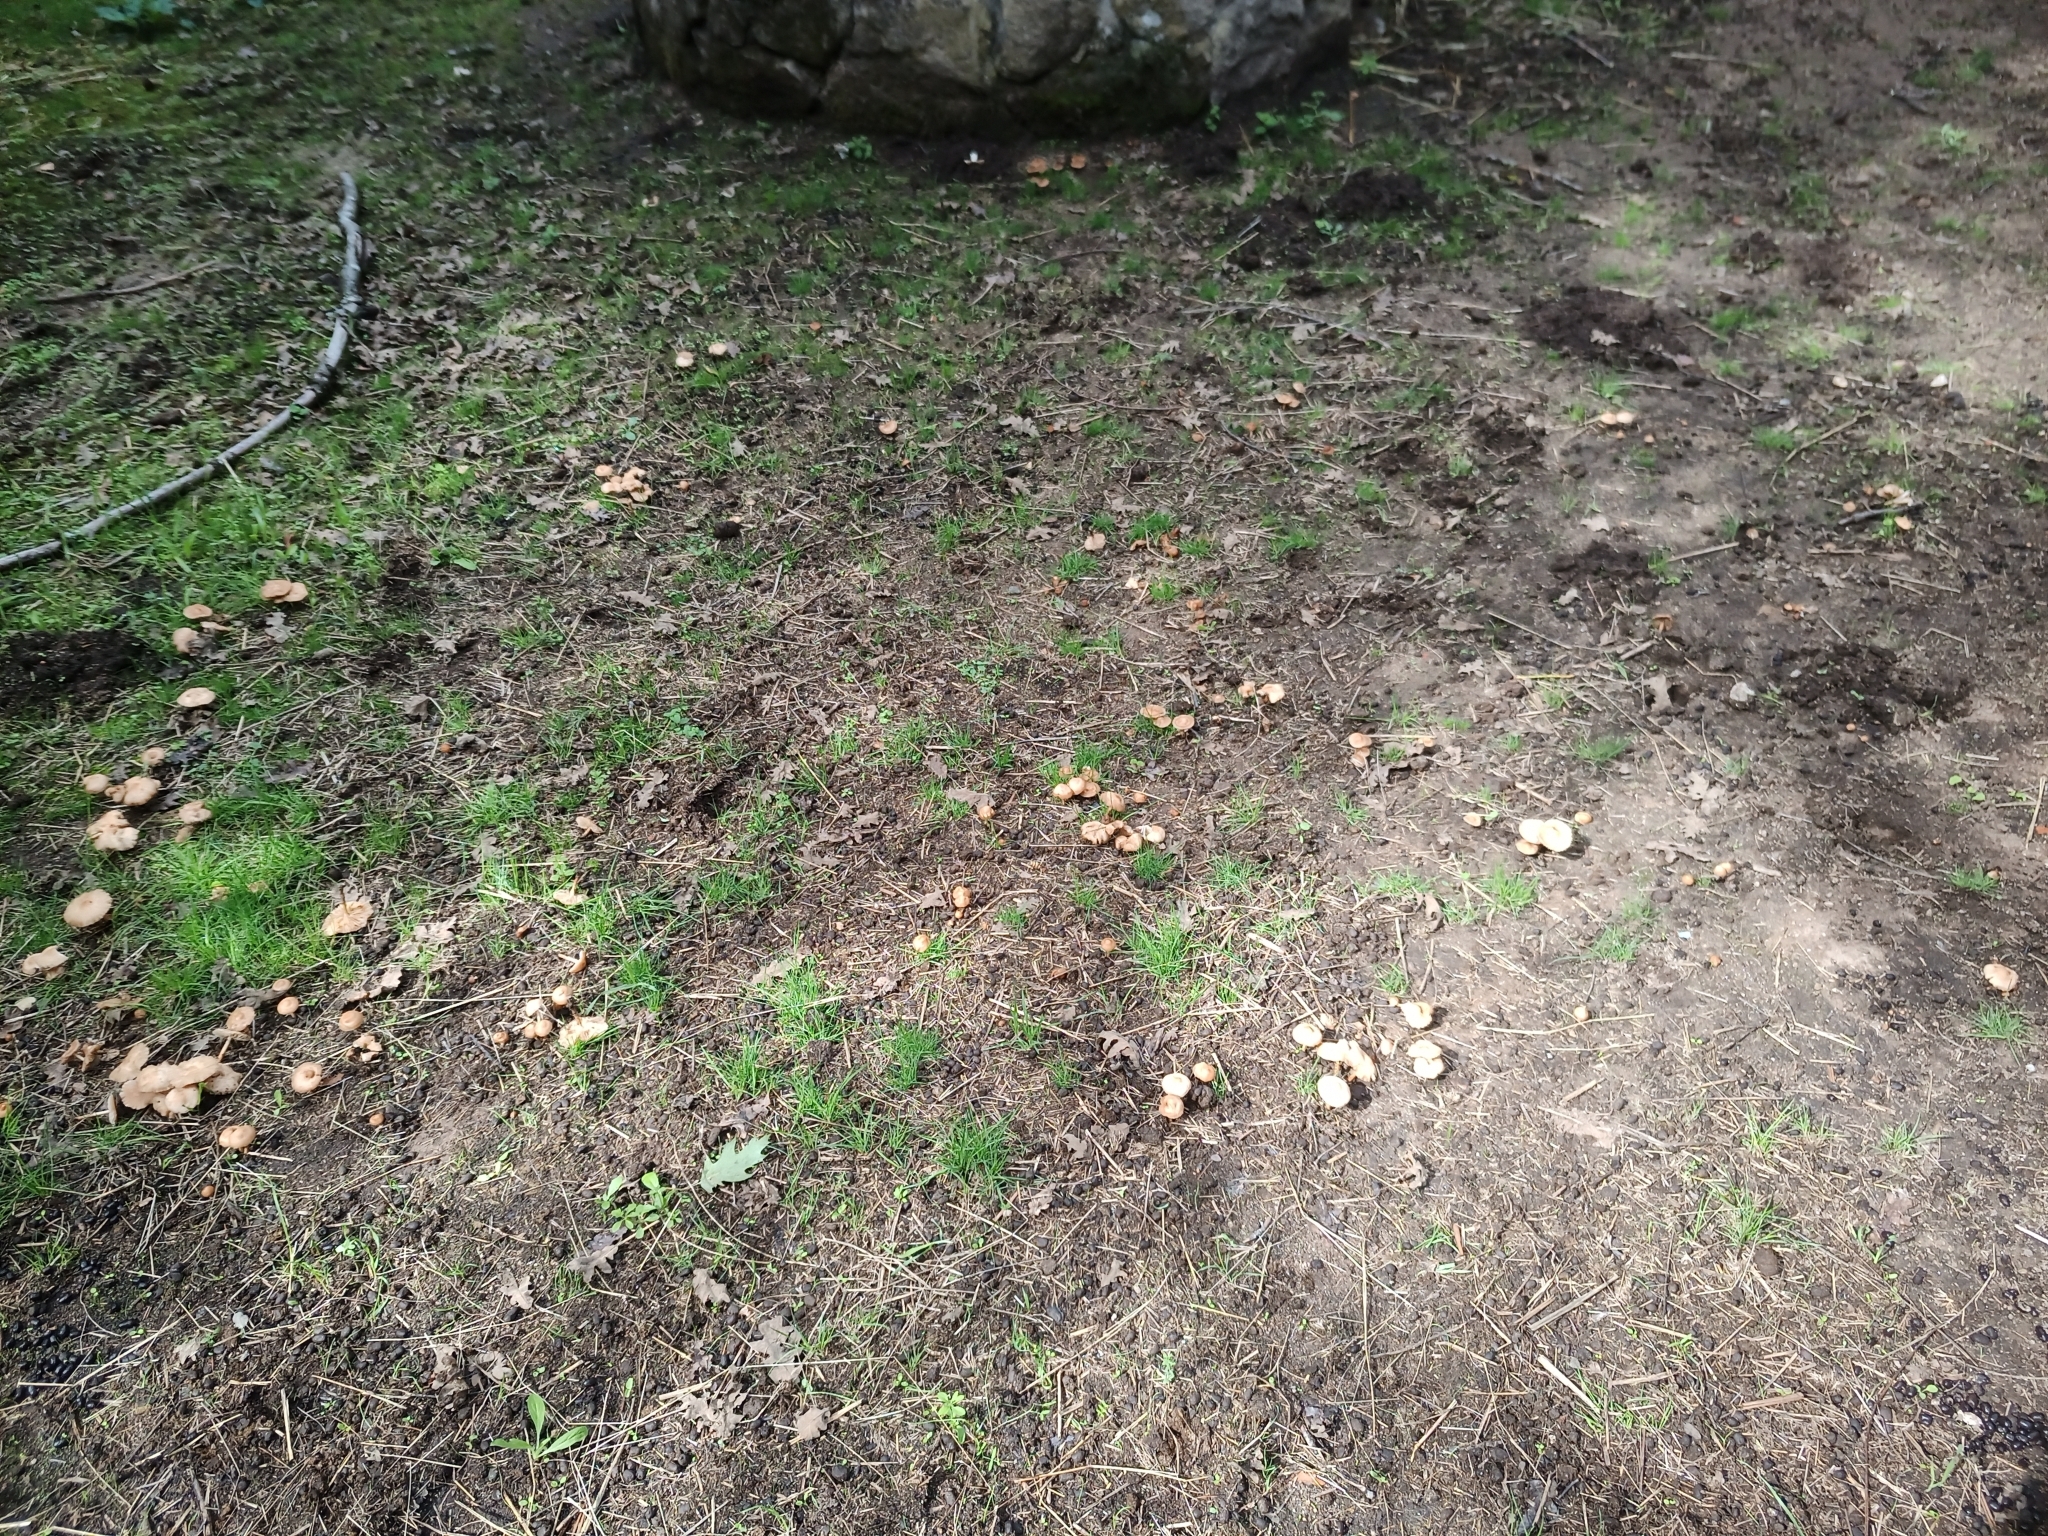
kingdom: Fungi
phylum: Basidiomycota
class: Agaricomycetes
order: Agaricales
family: Marasmiaceae
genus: Marasmius
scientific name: Marasmius oreades
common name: Fairy ring champignon
